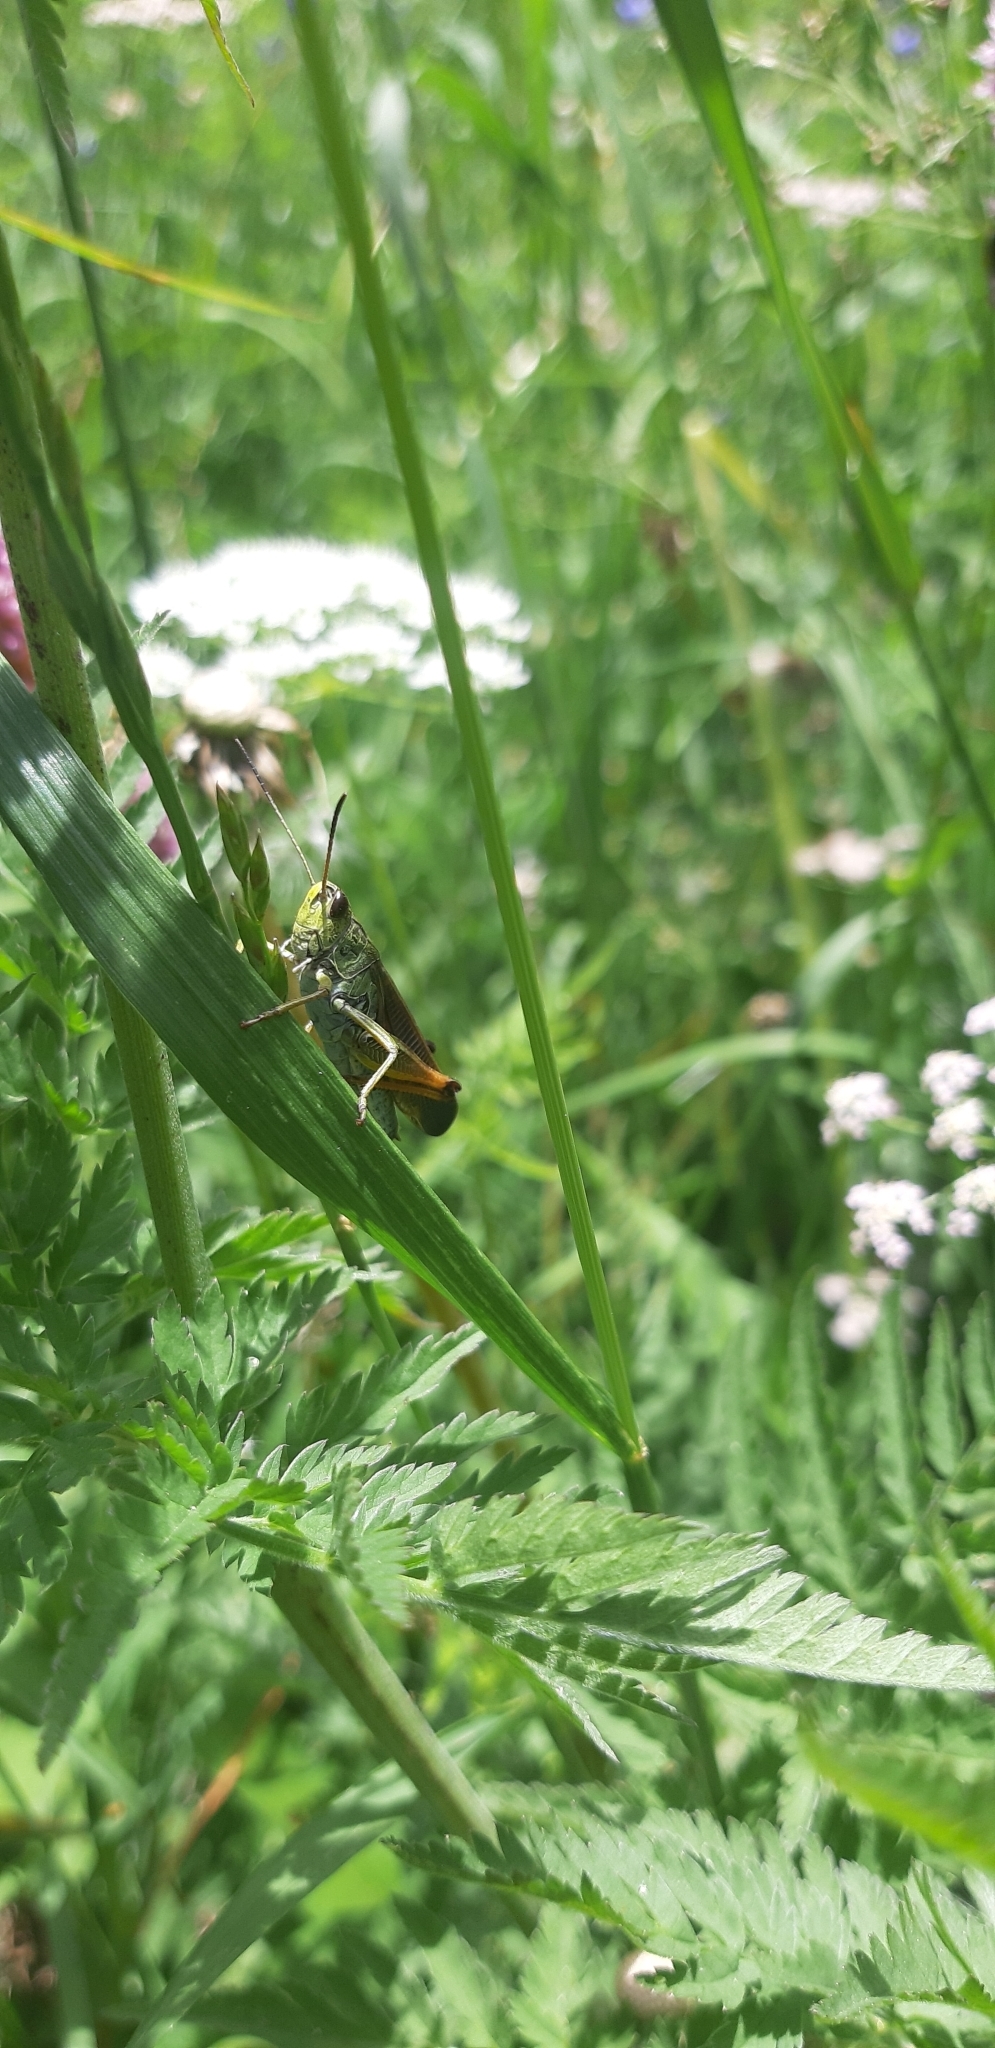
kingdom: Animalia
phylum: Arthropoda
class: Insecta
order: Orthoptera
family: Acrididae
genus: Stauroderus
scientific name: Stauroderus scalaris
